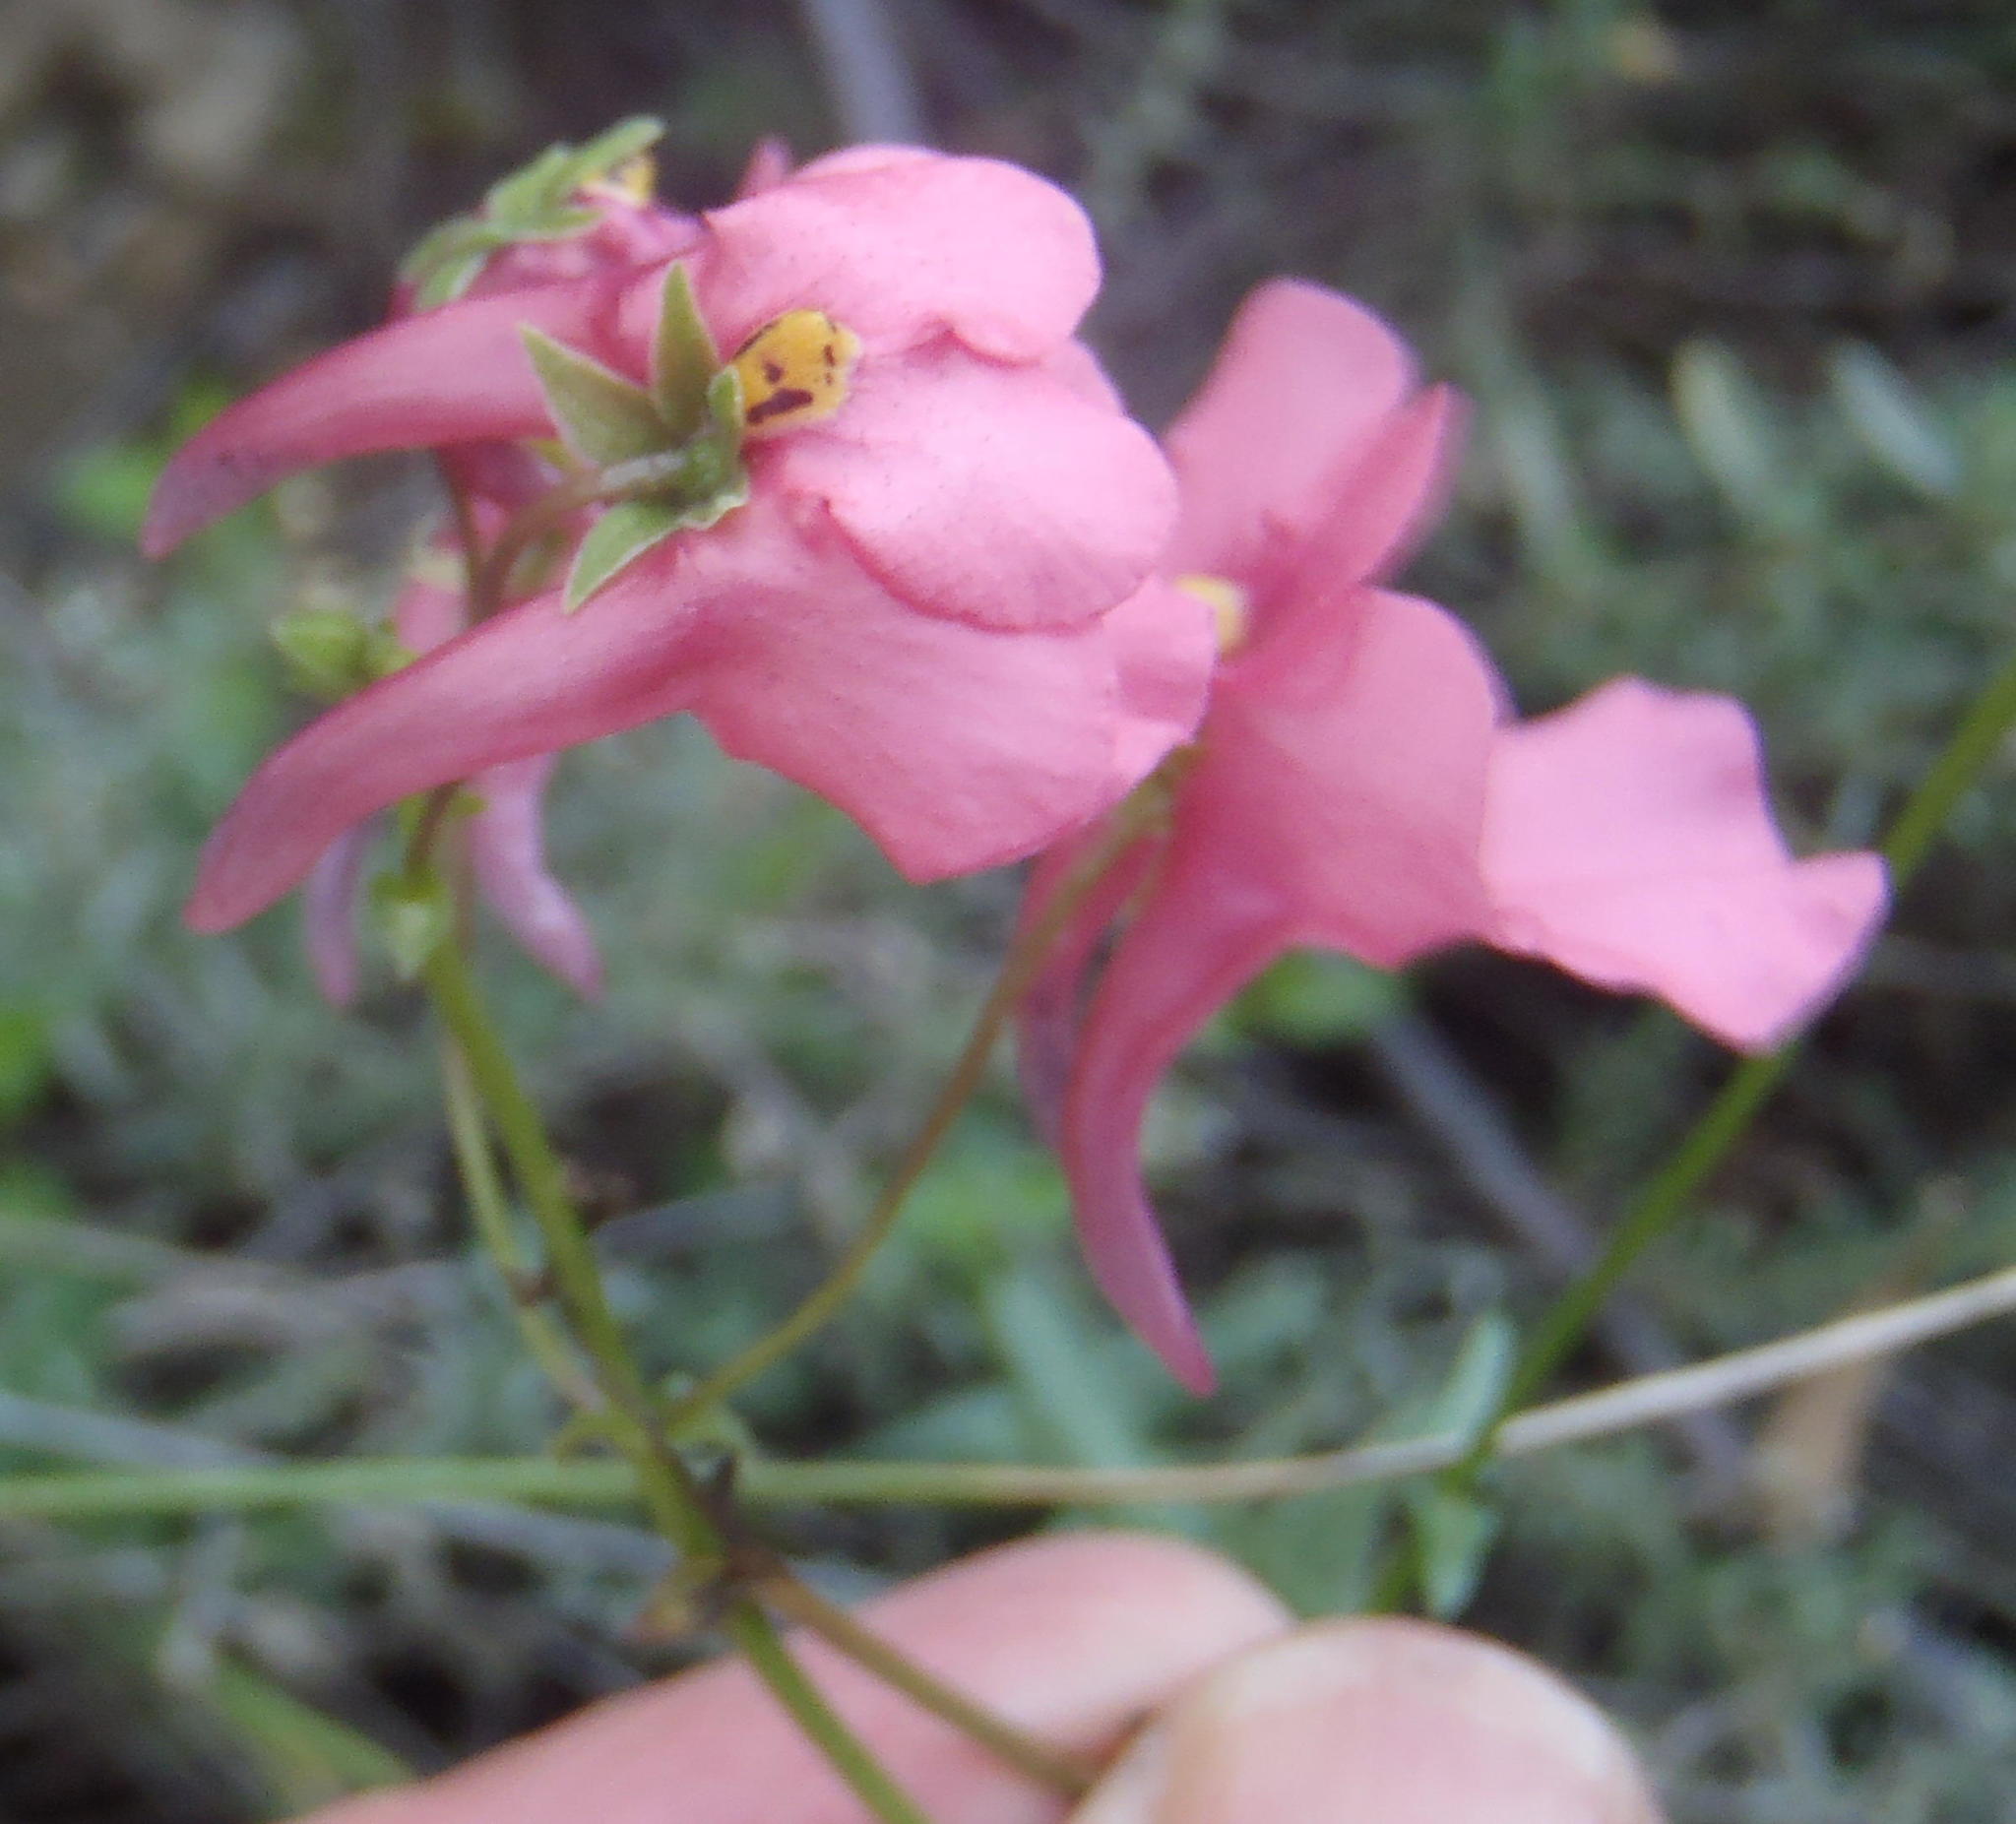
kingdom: Plantae
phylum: Tracheophyta
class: Magnoliopsida
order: Lamiales
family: Scrophulariaceae
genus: Diascia
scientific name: Diascia patens
